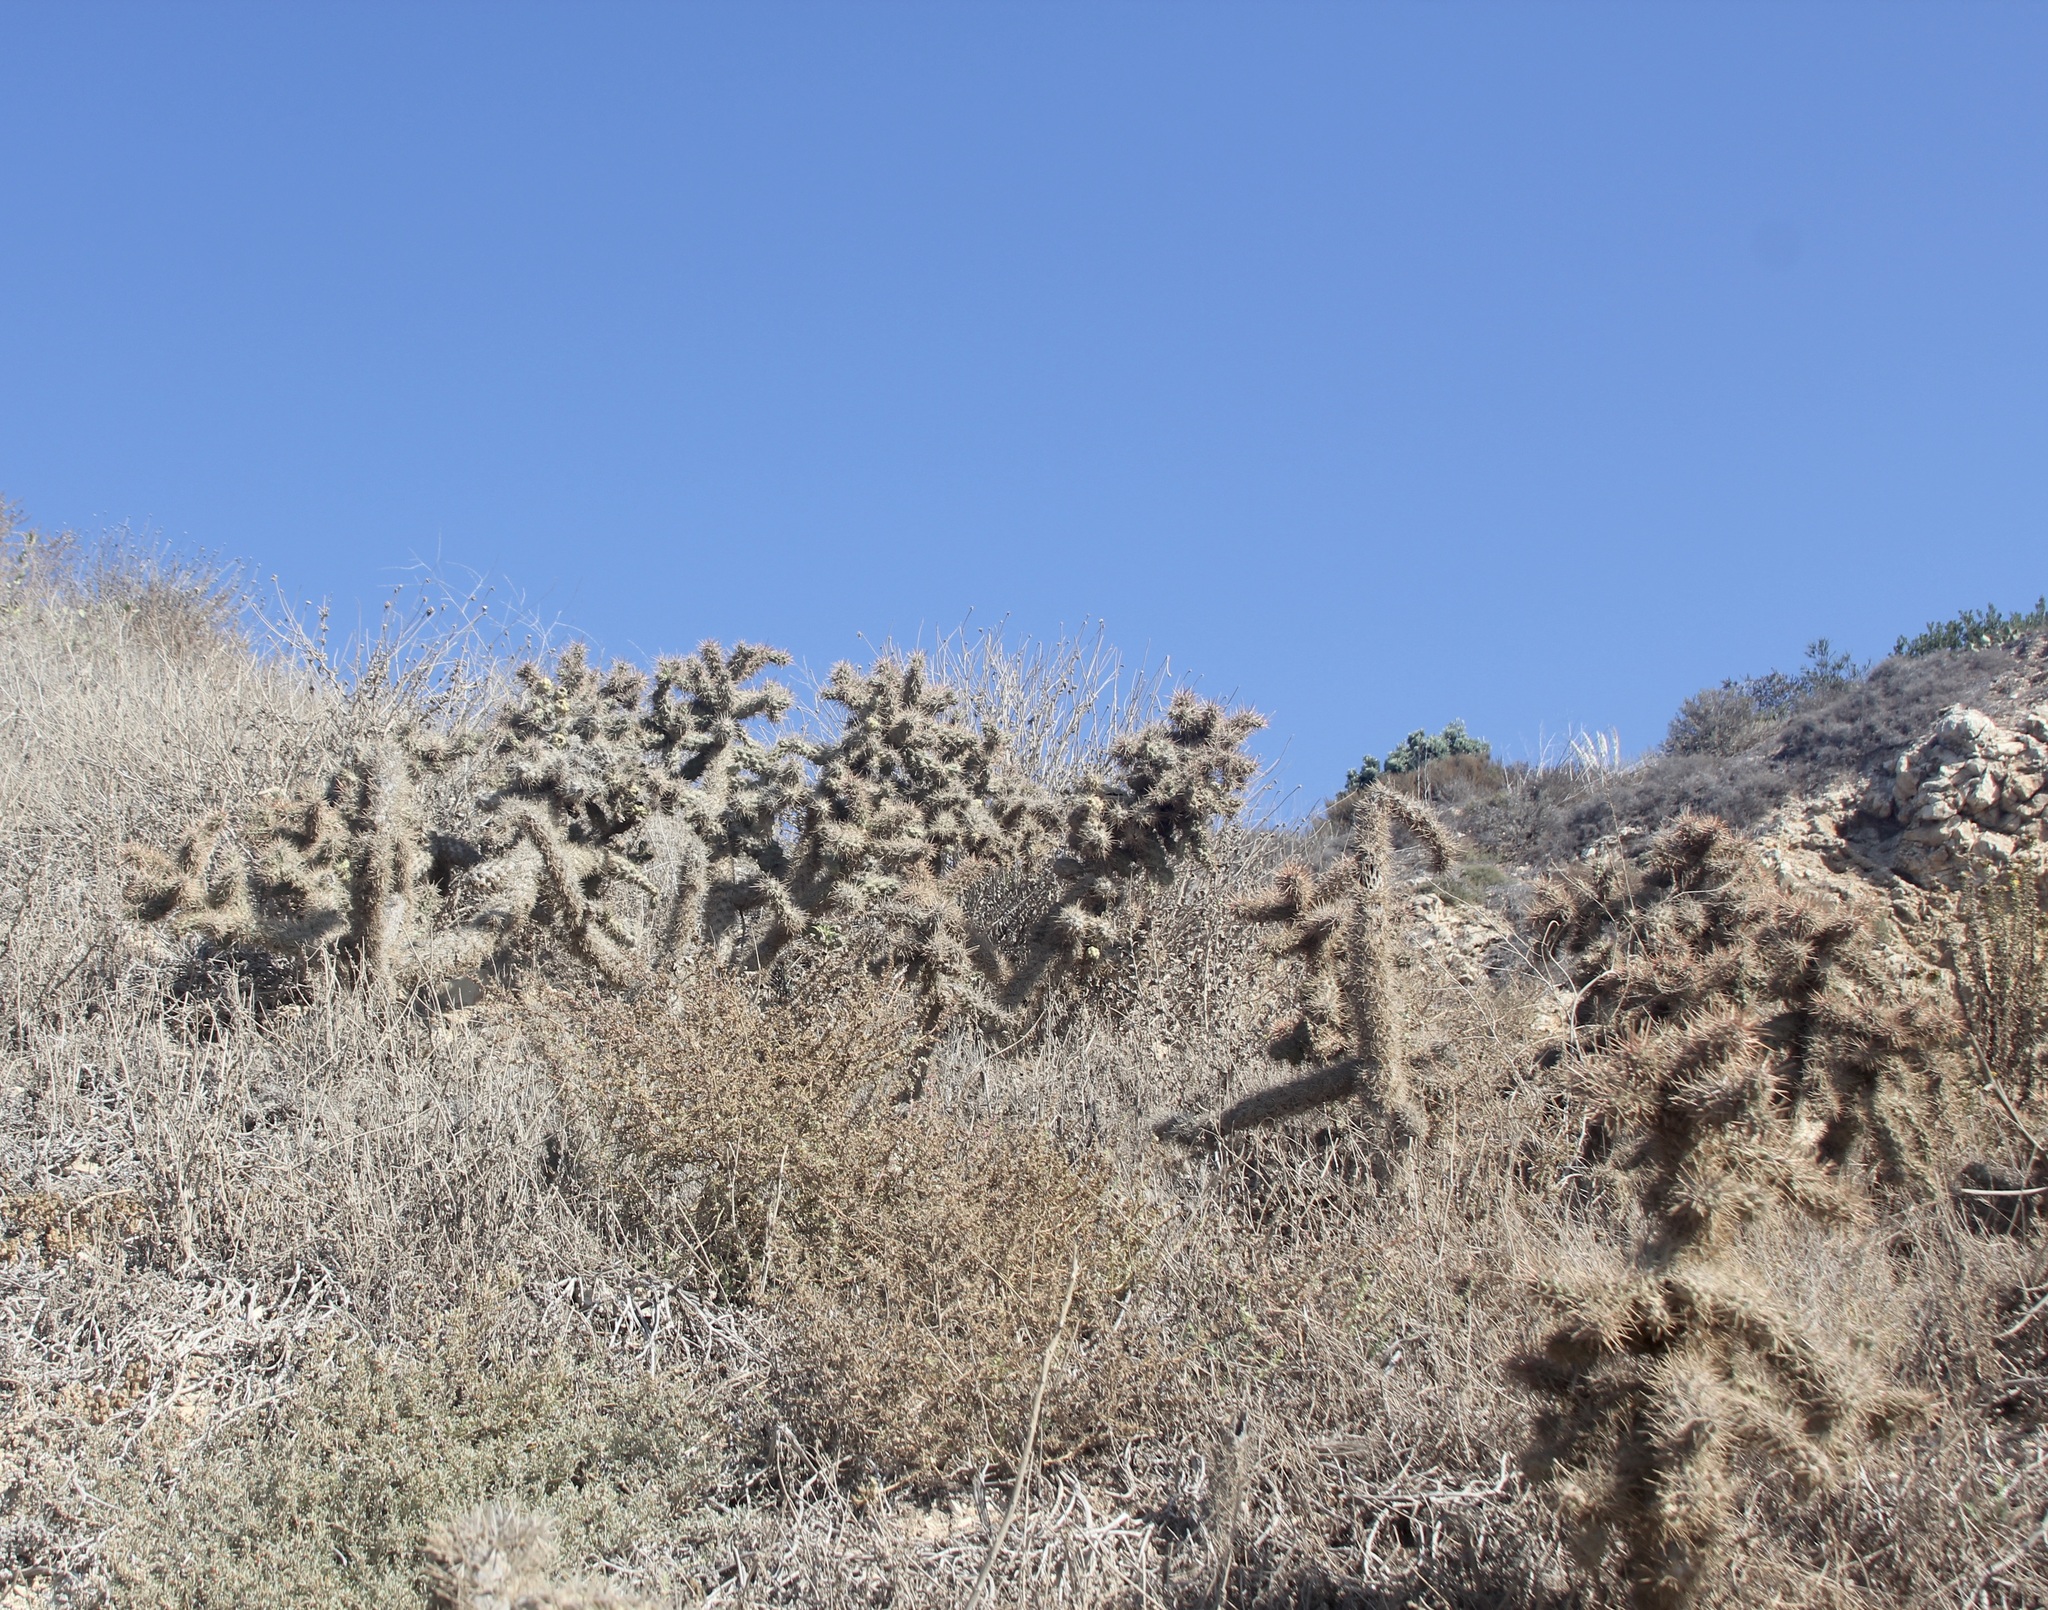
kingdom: Plantae
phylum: Tracheophyta
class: Magnoliopsida
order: Caryophyllales
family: Cactaceae
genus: Cylindropuntia
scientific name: Cylindropuntia prolifera
